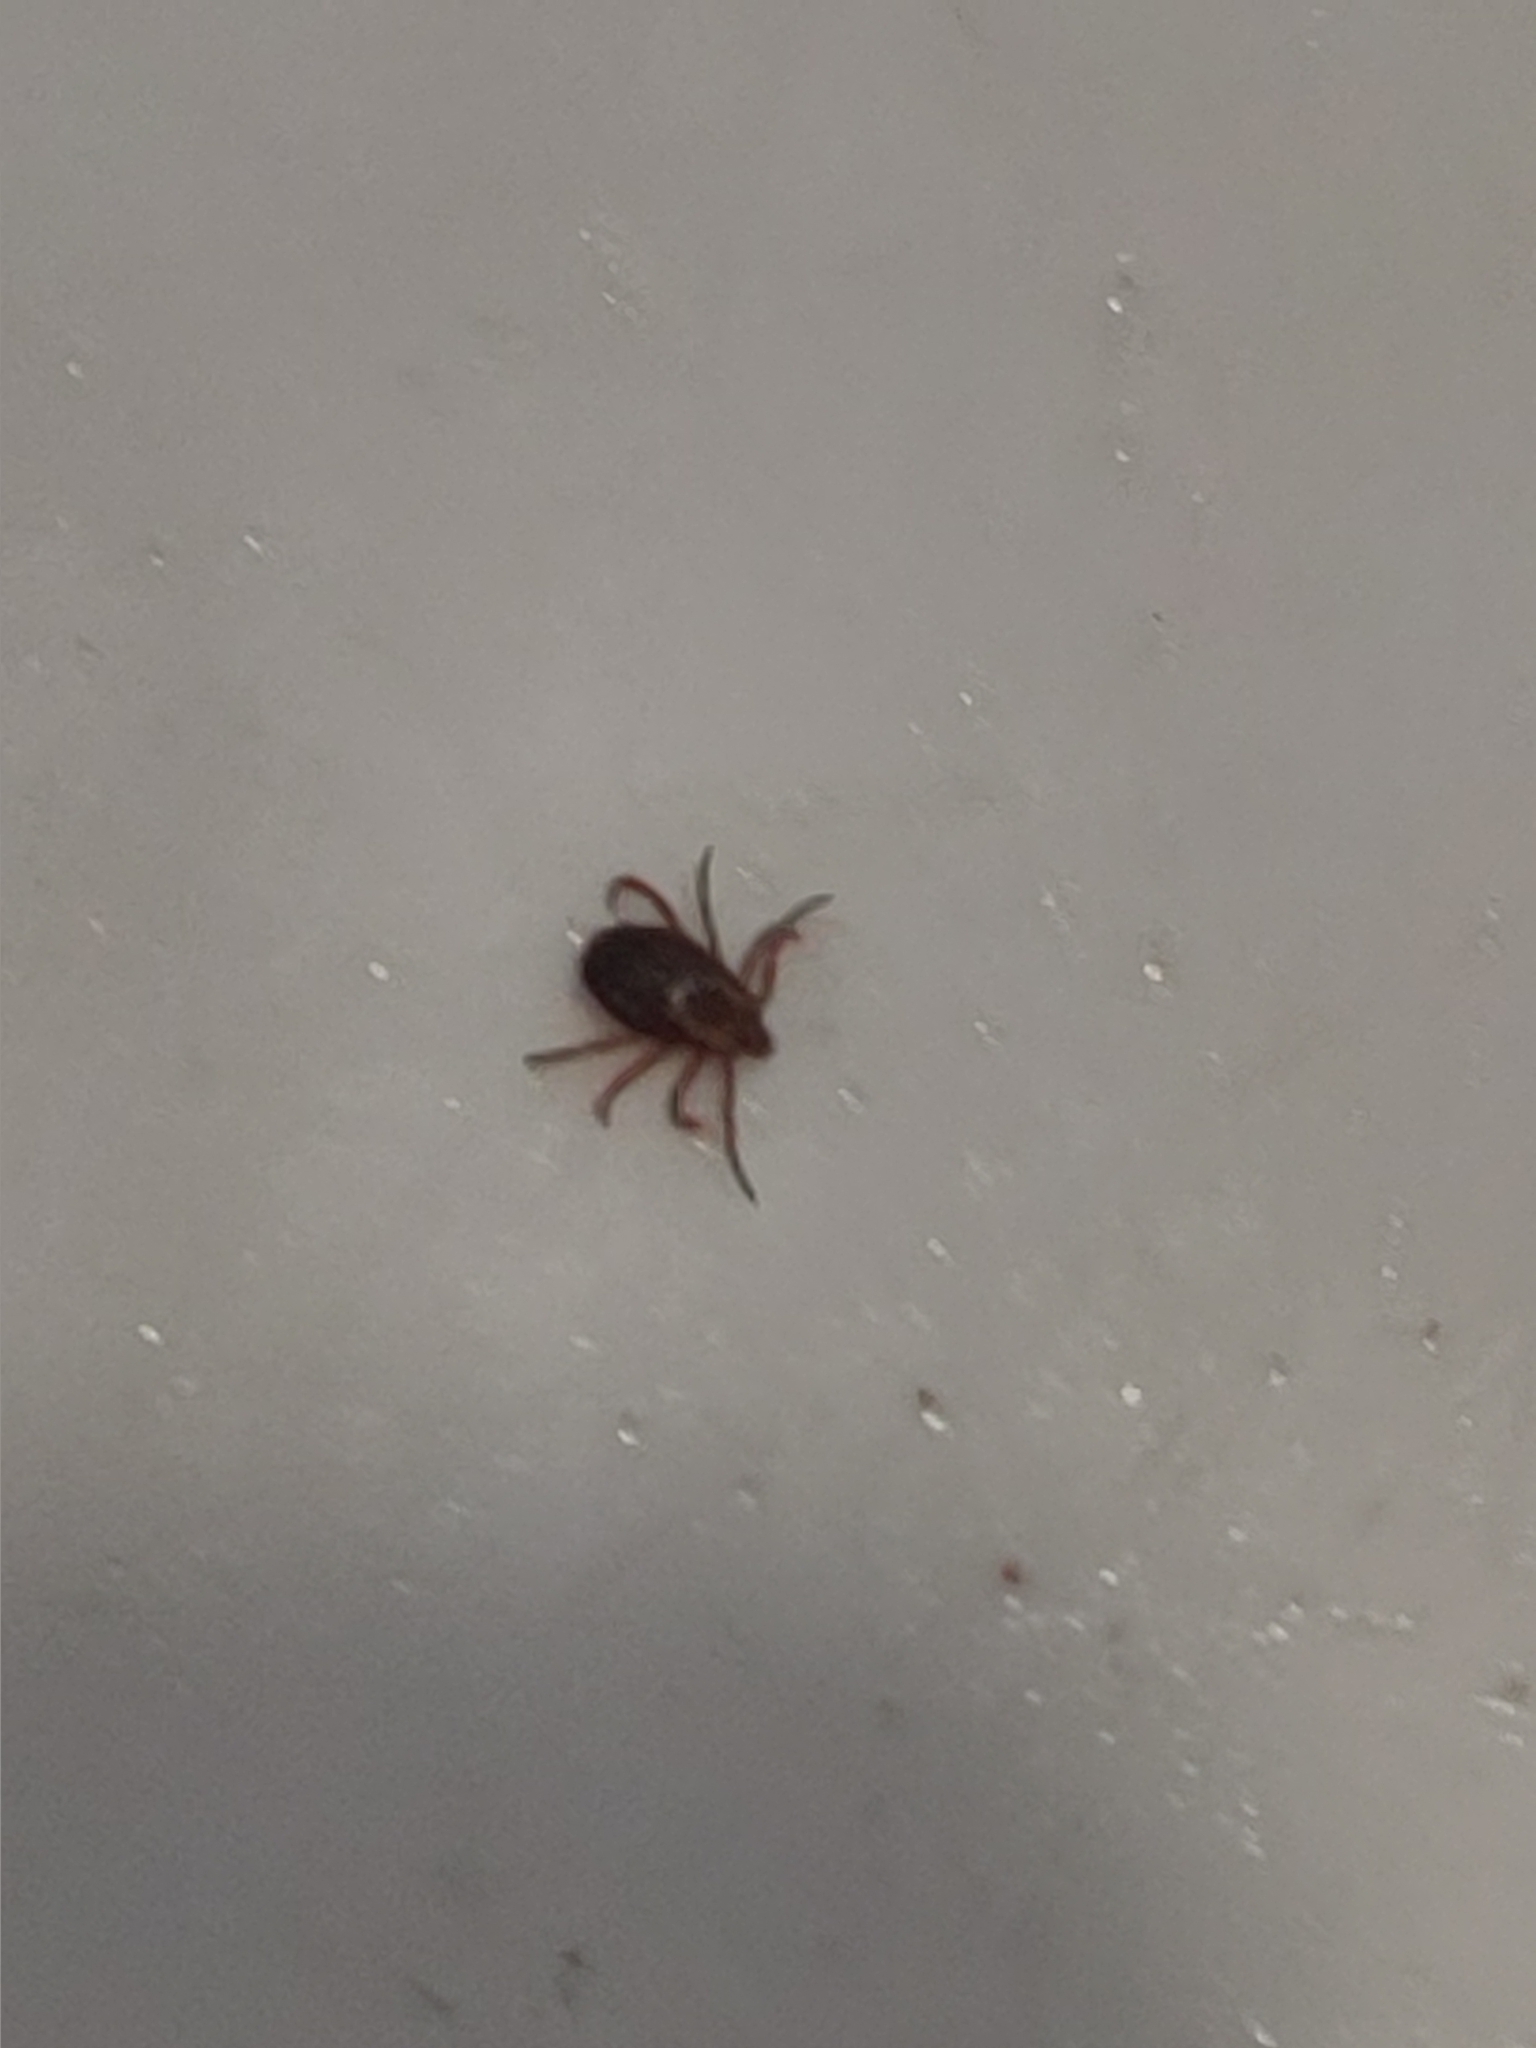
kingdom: Animalia
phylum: Arthropoda
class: Arachnida
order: Ixodida
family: Ixodidae
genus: Dermacentor
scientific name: Dermacentor variabilis
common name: American dog tick
